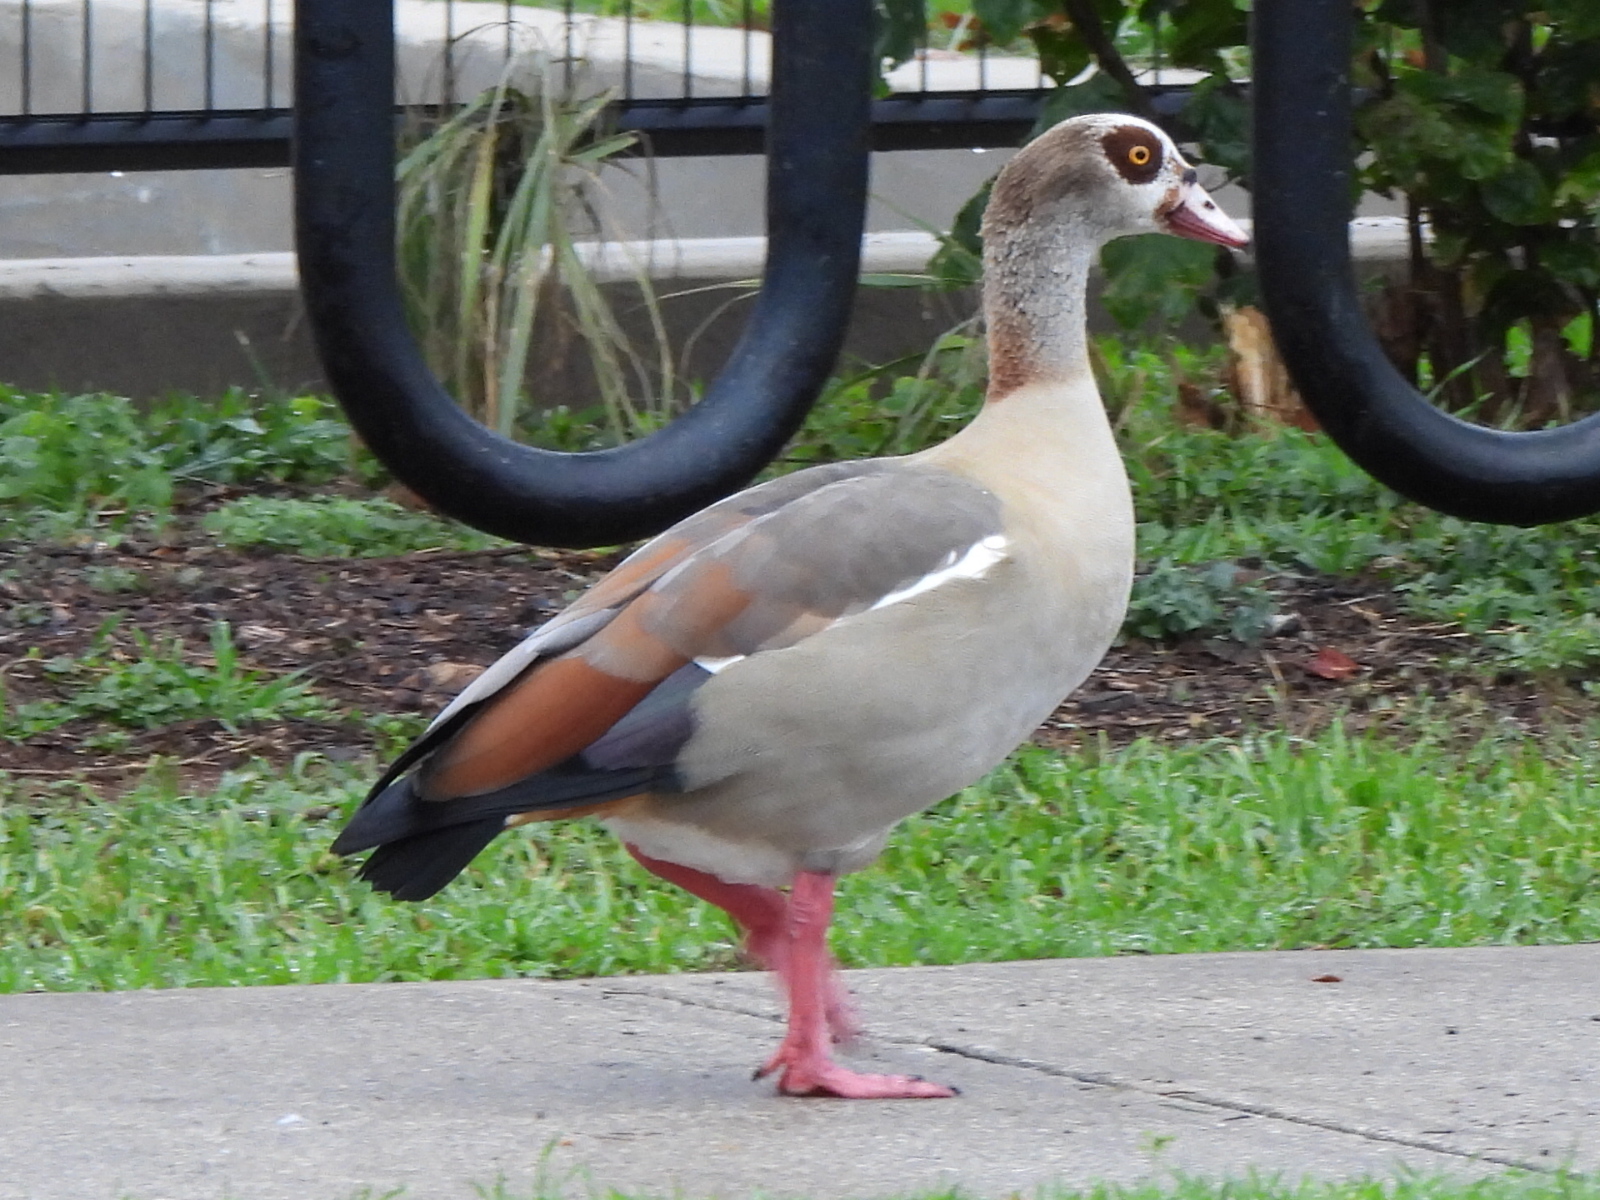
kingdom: Animalia
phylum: Chordata
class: Aves
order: Anseriformes
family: Anatidae
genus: Alopochen
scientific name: Alopochen aegyptiaca
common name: Egyptian goose
